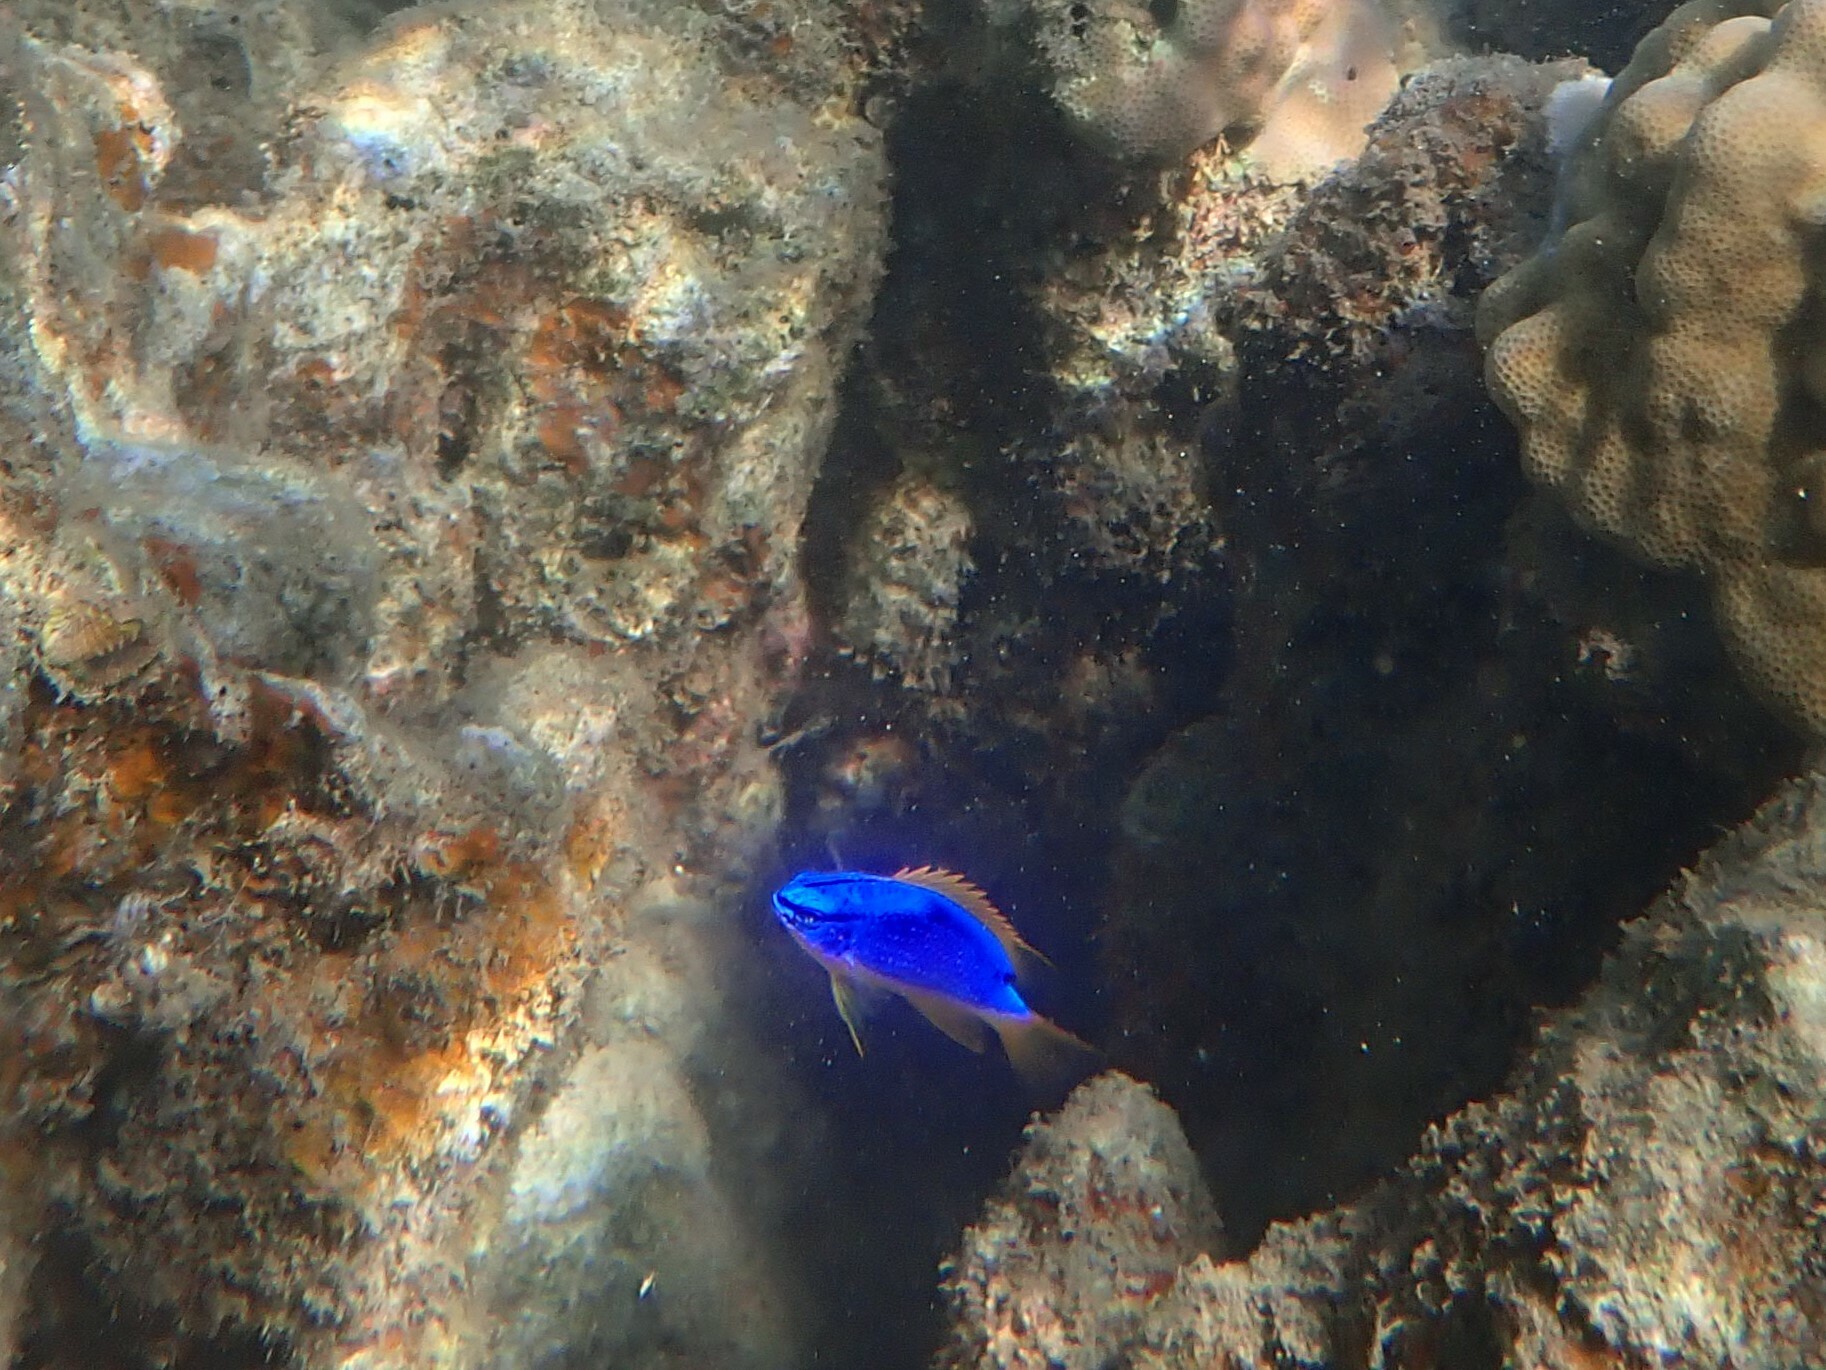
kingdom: Animalia
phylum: Chordata
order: Perciformes
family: Pomacentridae
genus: Chrysiptera
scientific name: Chrysiptera taupou
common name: Fiji damsel
